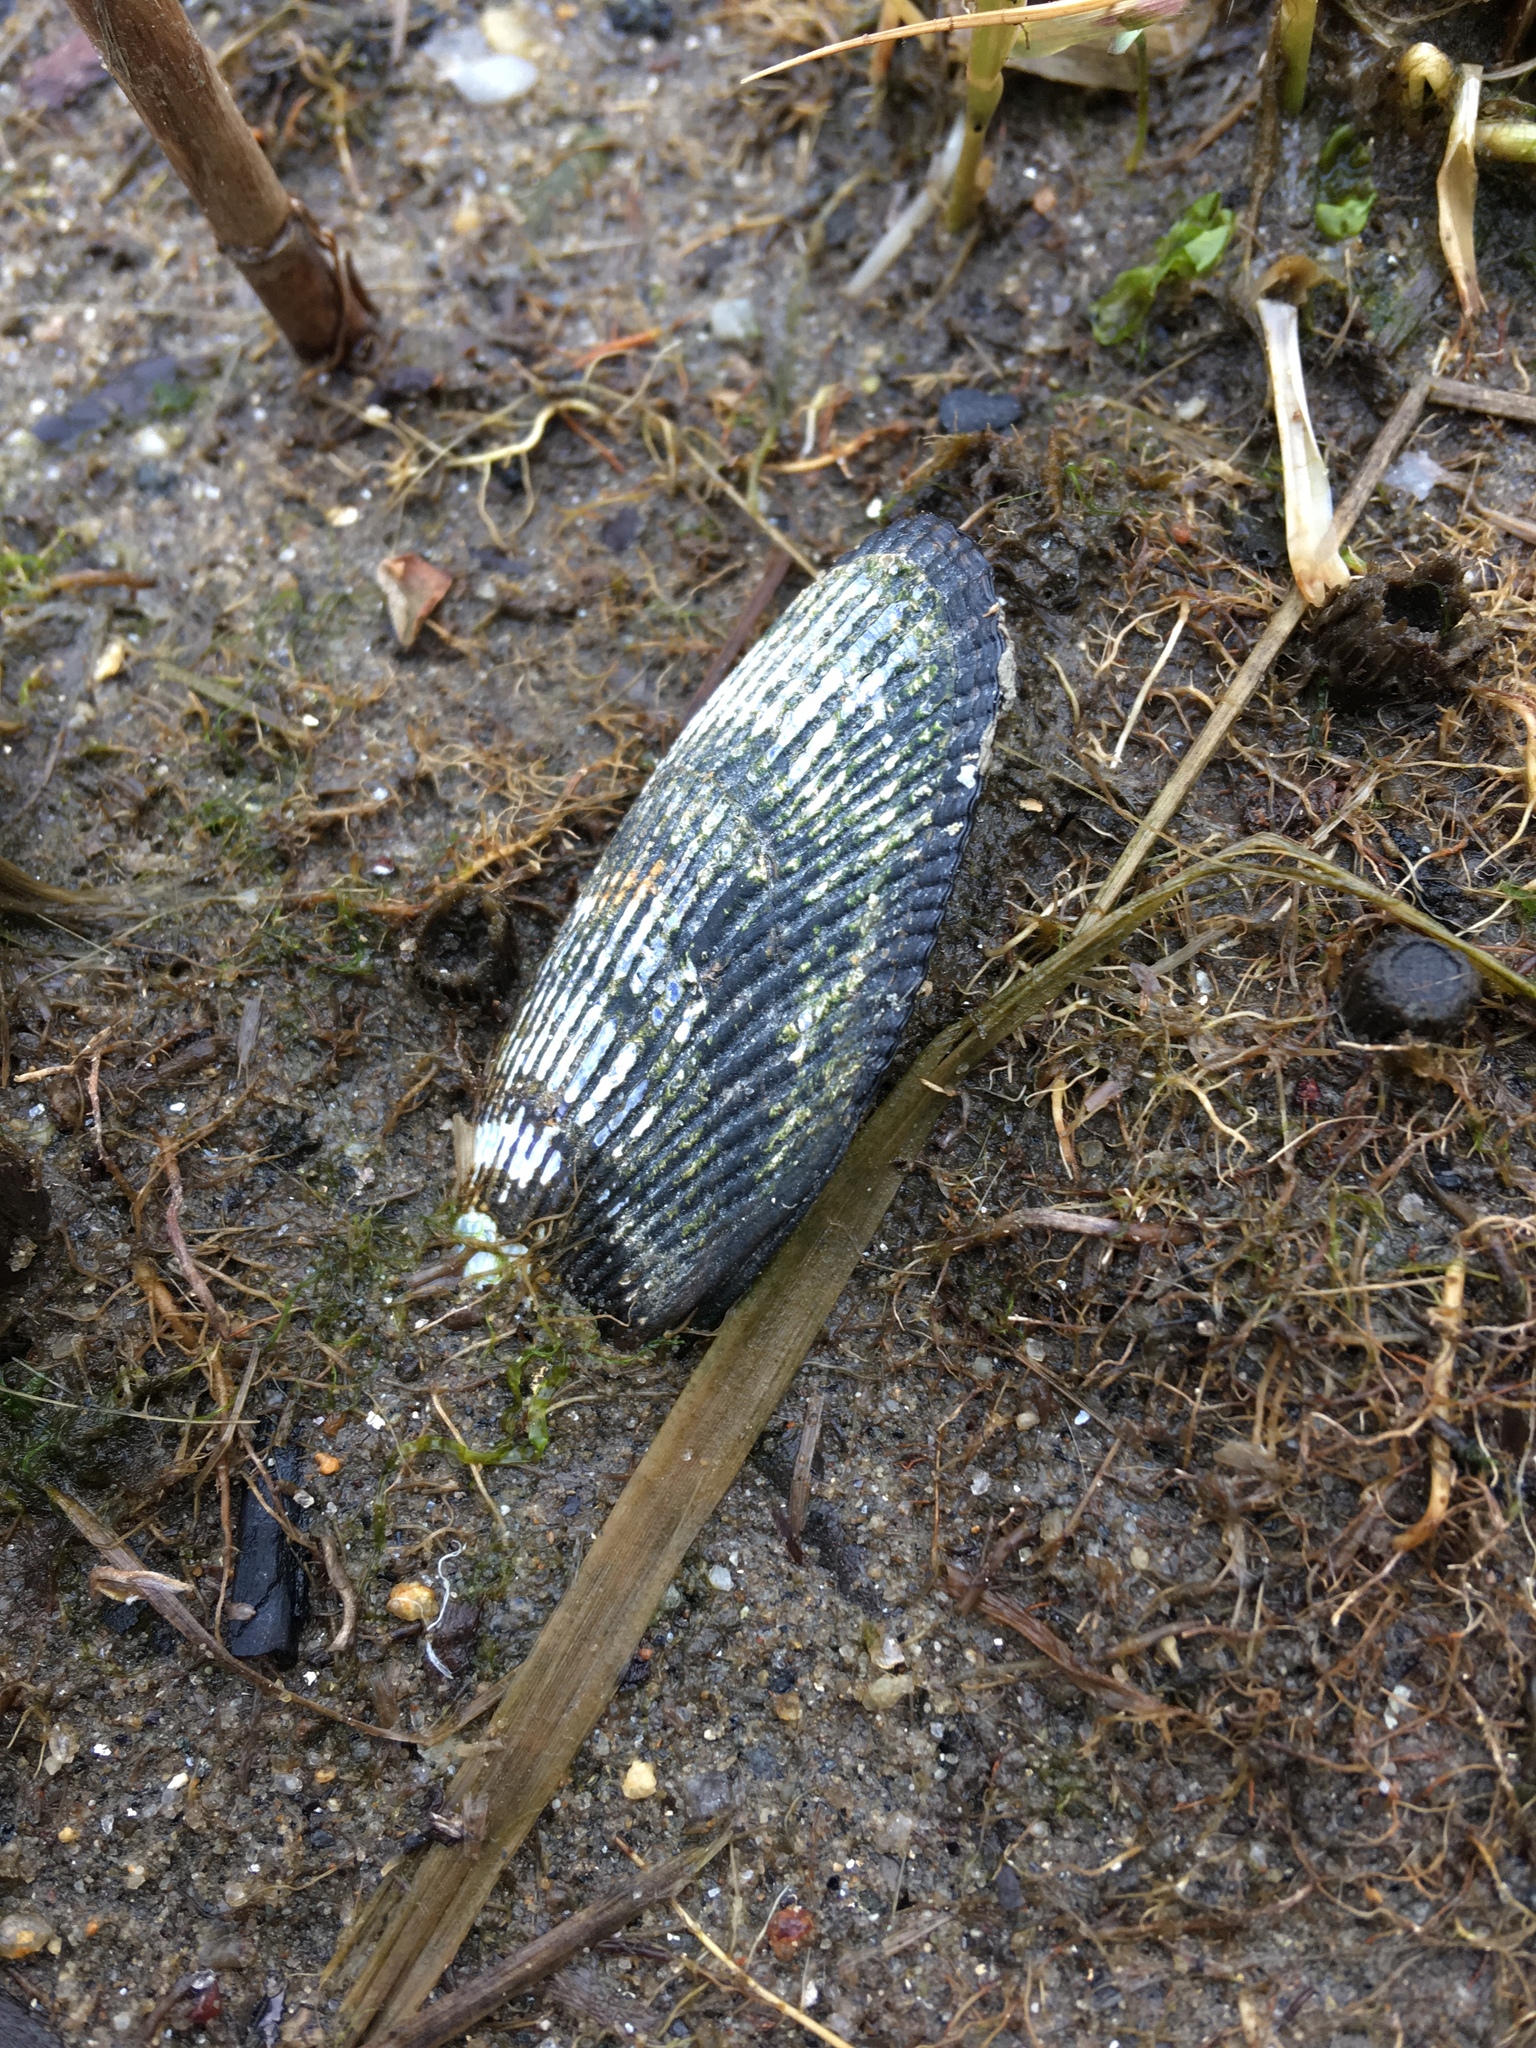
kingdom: Animalia
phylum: Mollusca
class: Bivalvia
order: Mytilida
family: Mytilidae
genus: Geukensia
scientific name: Geukensia demissa
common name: Ribbed mussel
